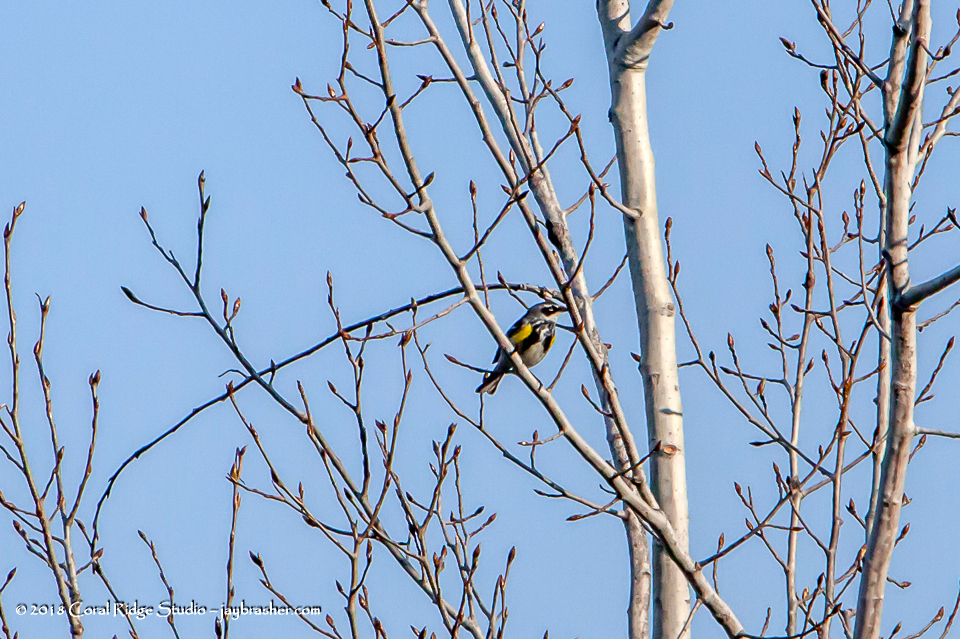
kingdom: Animalia
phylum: Chordata
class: Aves
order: Passeriformes
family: Parulidae
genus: Setophaga
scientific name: Setophaga coronata
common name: Myrtle warbler
